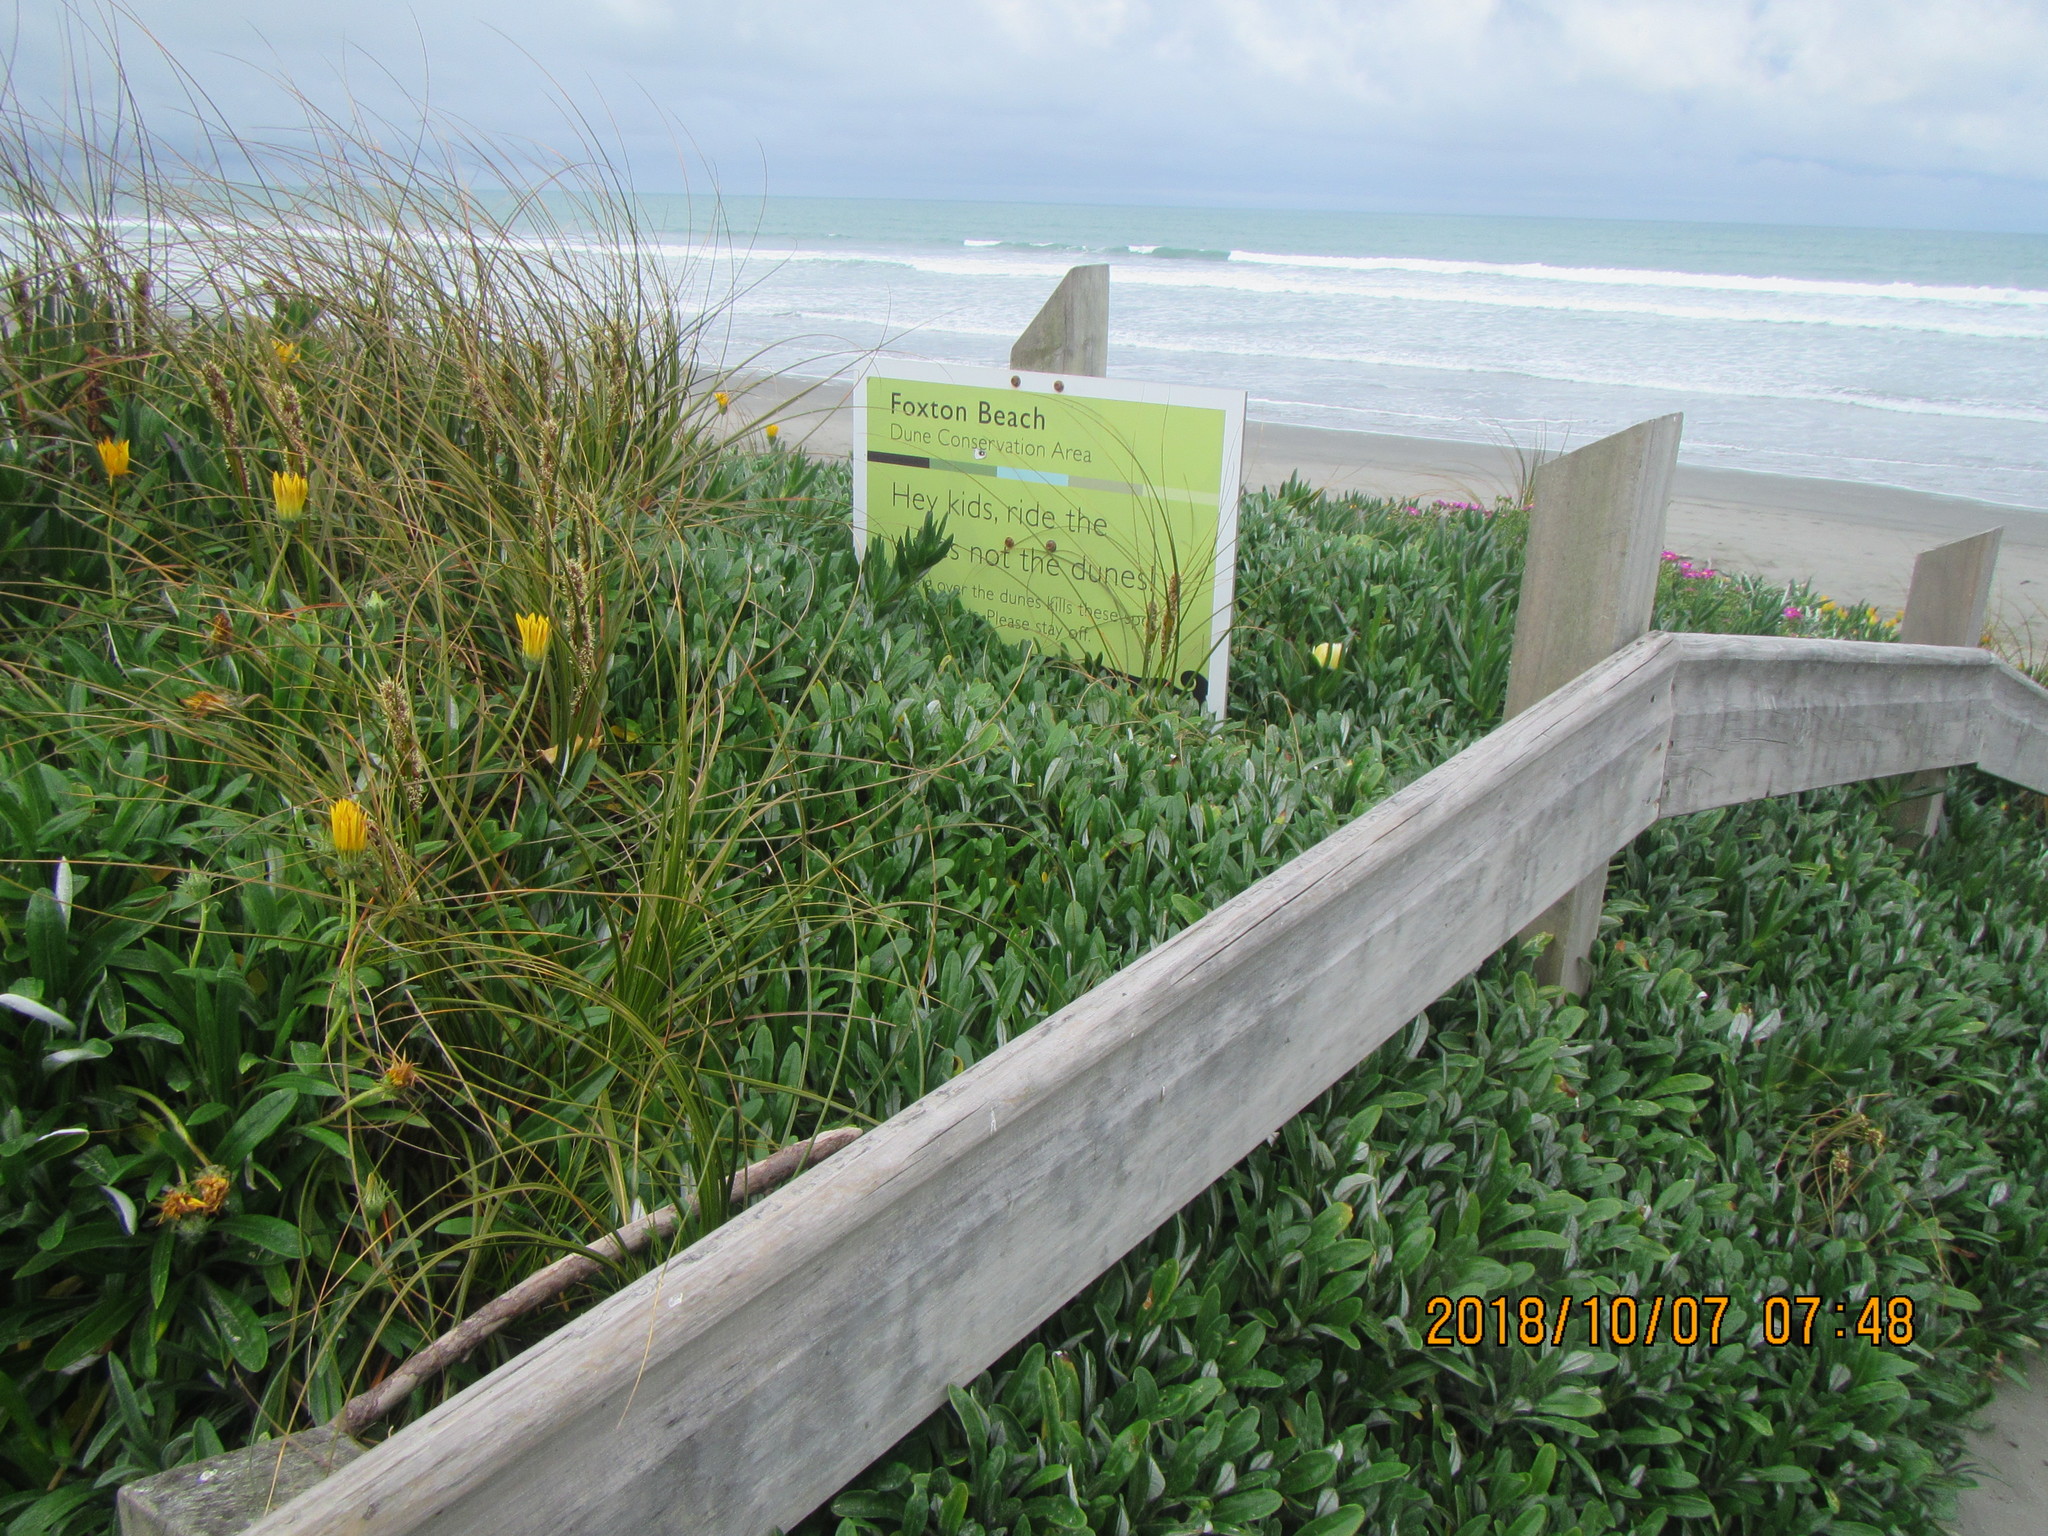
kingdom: Plantae
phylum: Tracheophyta
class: Liliopsida
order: Poales
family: Cyperaceae
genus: Ficinia
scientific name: Ficinia spiralis
